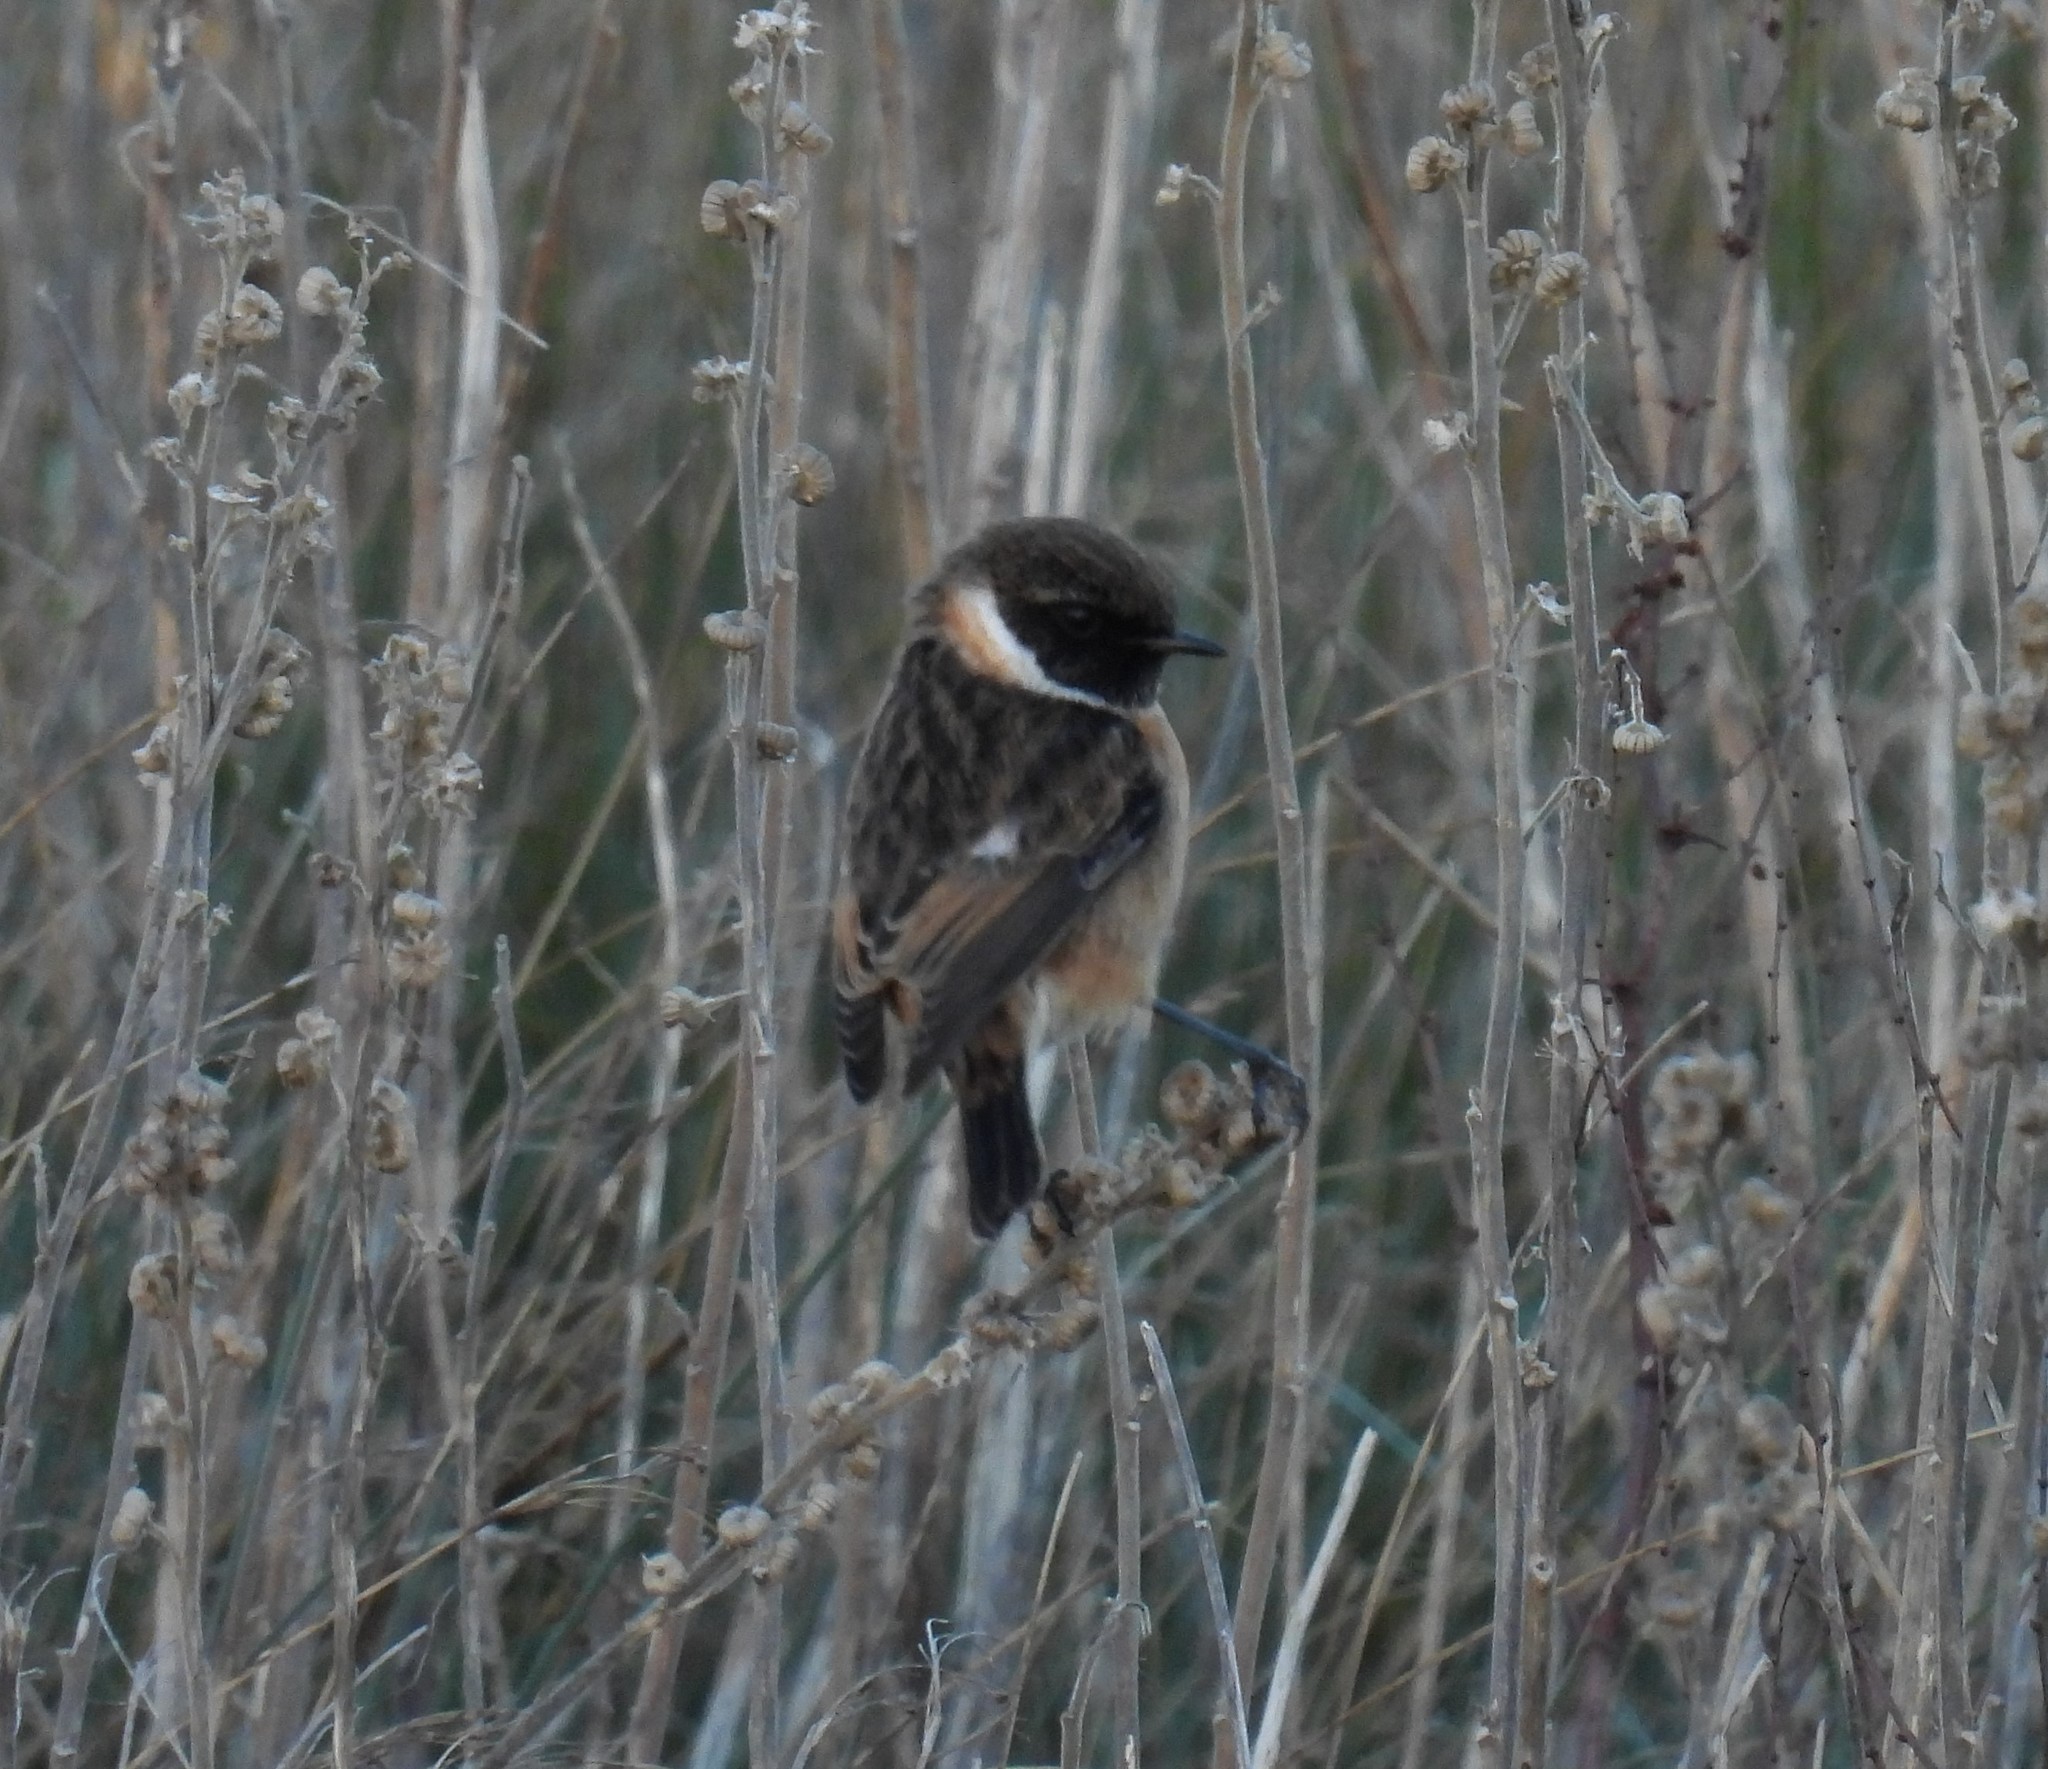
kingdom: Animalia
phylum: Chordata
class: Aves
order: Passeriformes
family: Muscicapidae
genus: Saxicola
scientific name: Saxicola rubicola
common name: European stonechat
